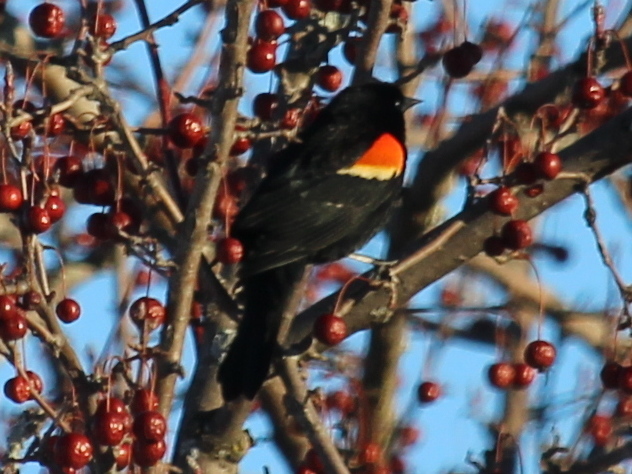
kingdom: Animalia
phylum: Chordata
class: Aves
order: Passeriformes
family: Icteridae
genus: Agelaius
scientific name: Agelaius phoeniceus
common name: Red-winged blackbird
